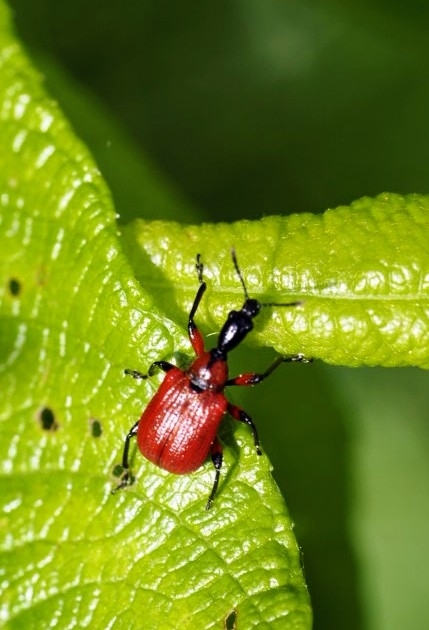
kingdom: Animalia
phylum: Arthropoda
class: Insecta
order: Coleoptera
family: Attelabidae
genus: Apoderus
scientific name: Apoderus coryli
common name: Hazel leaf roller
